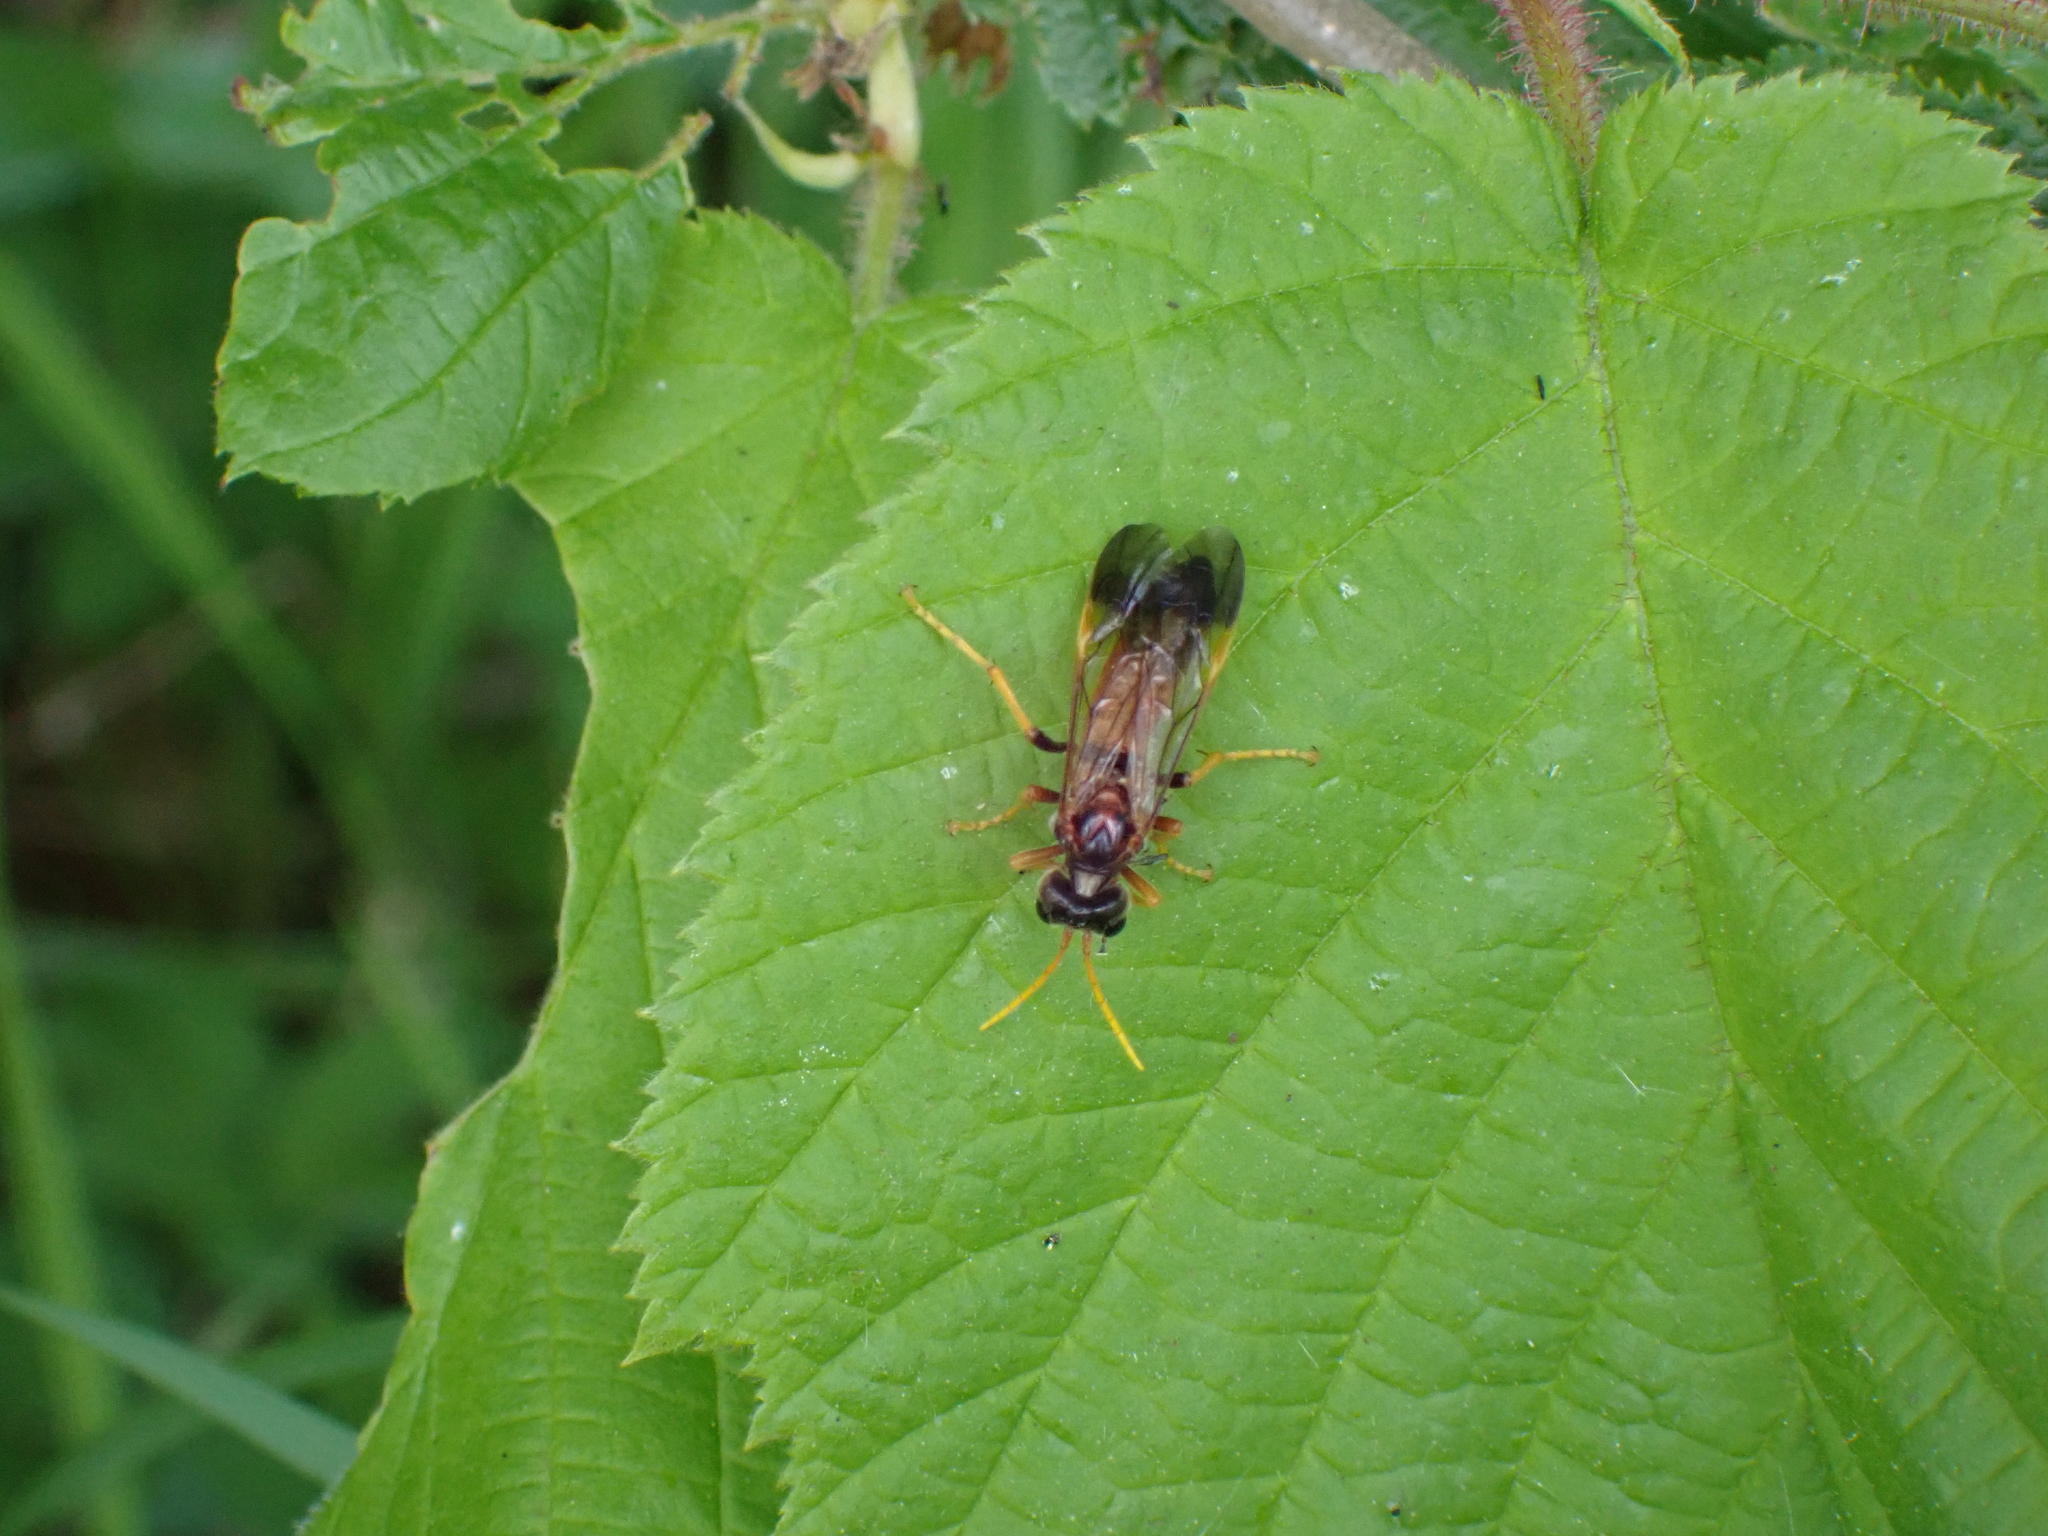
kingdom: Animalia
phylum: Arthropoda
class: Insecta
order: Hymenoptera
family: Tenthredinidae
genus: Tenthredo
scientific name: Tenthredo campestris
